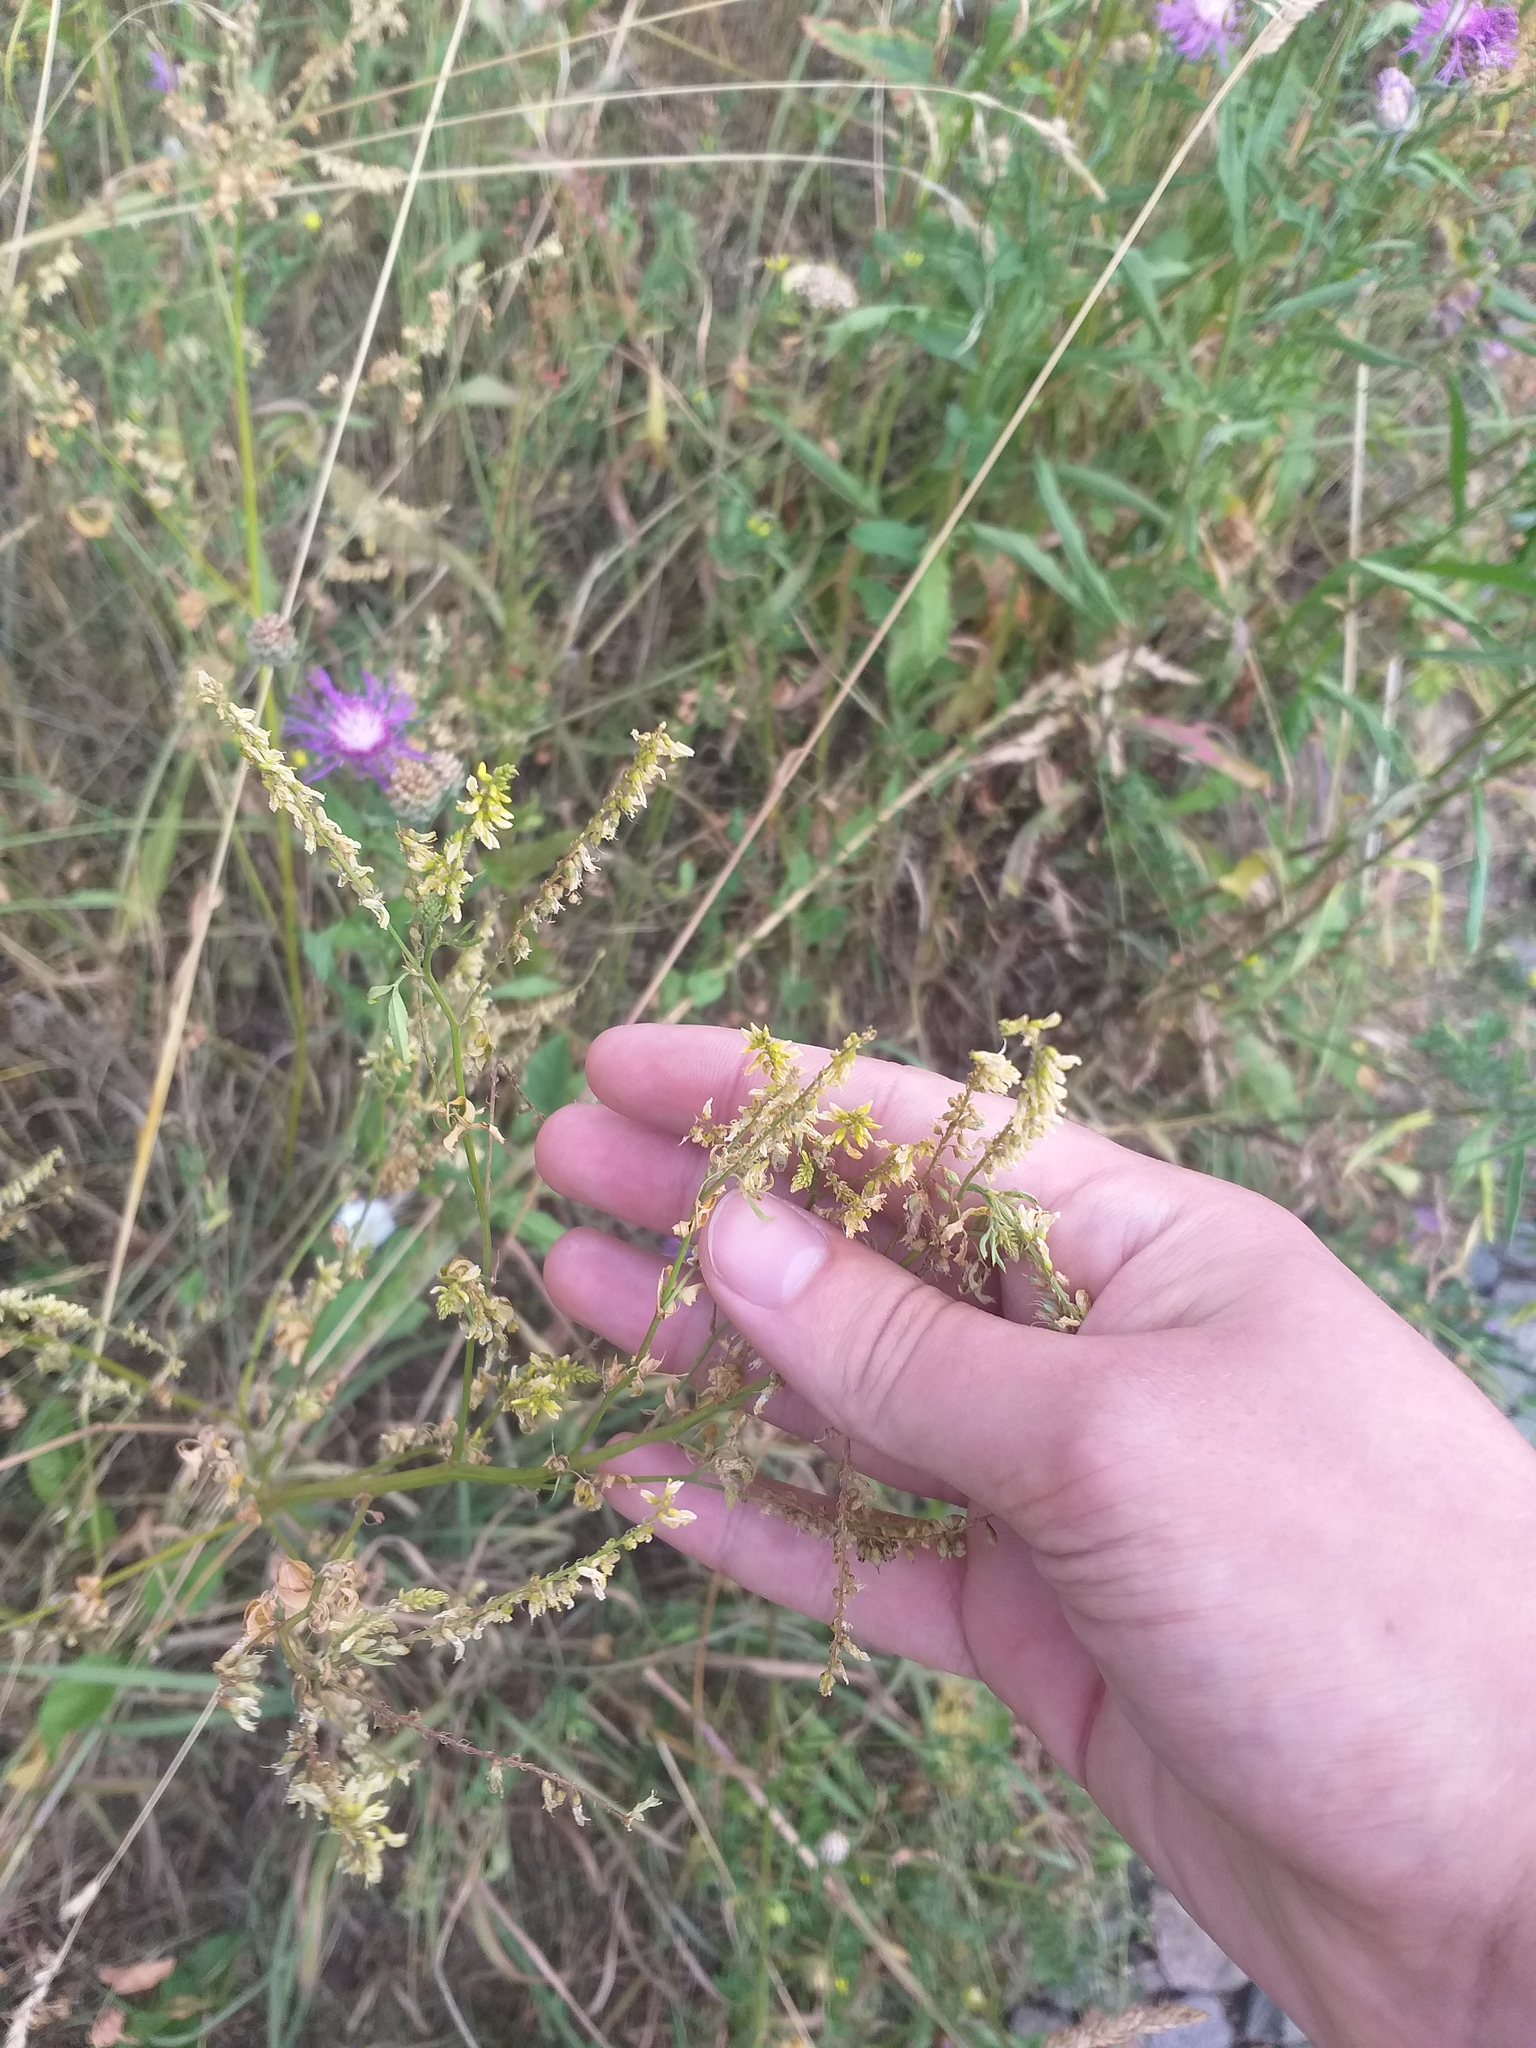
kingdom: Plantae
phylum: Tracheophyta
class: Magnoliopsida
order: Fabales
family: Fabaceae
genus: Melilotus
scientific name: Melilotus officinalis
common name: Sweetclover
